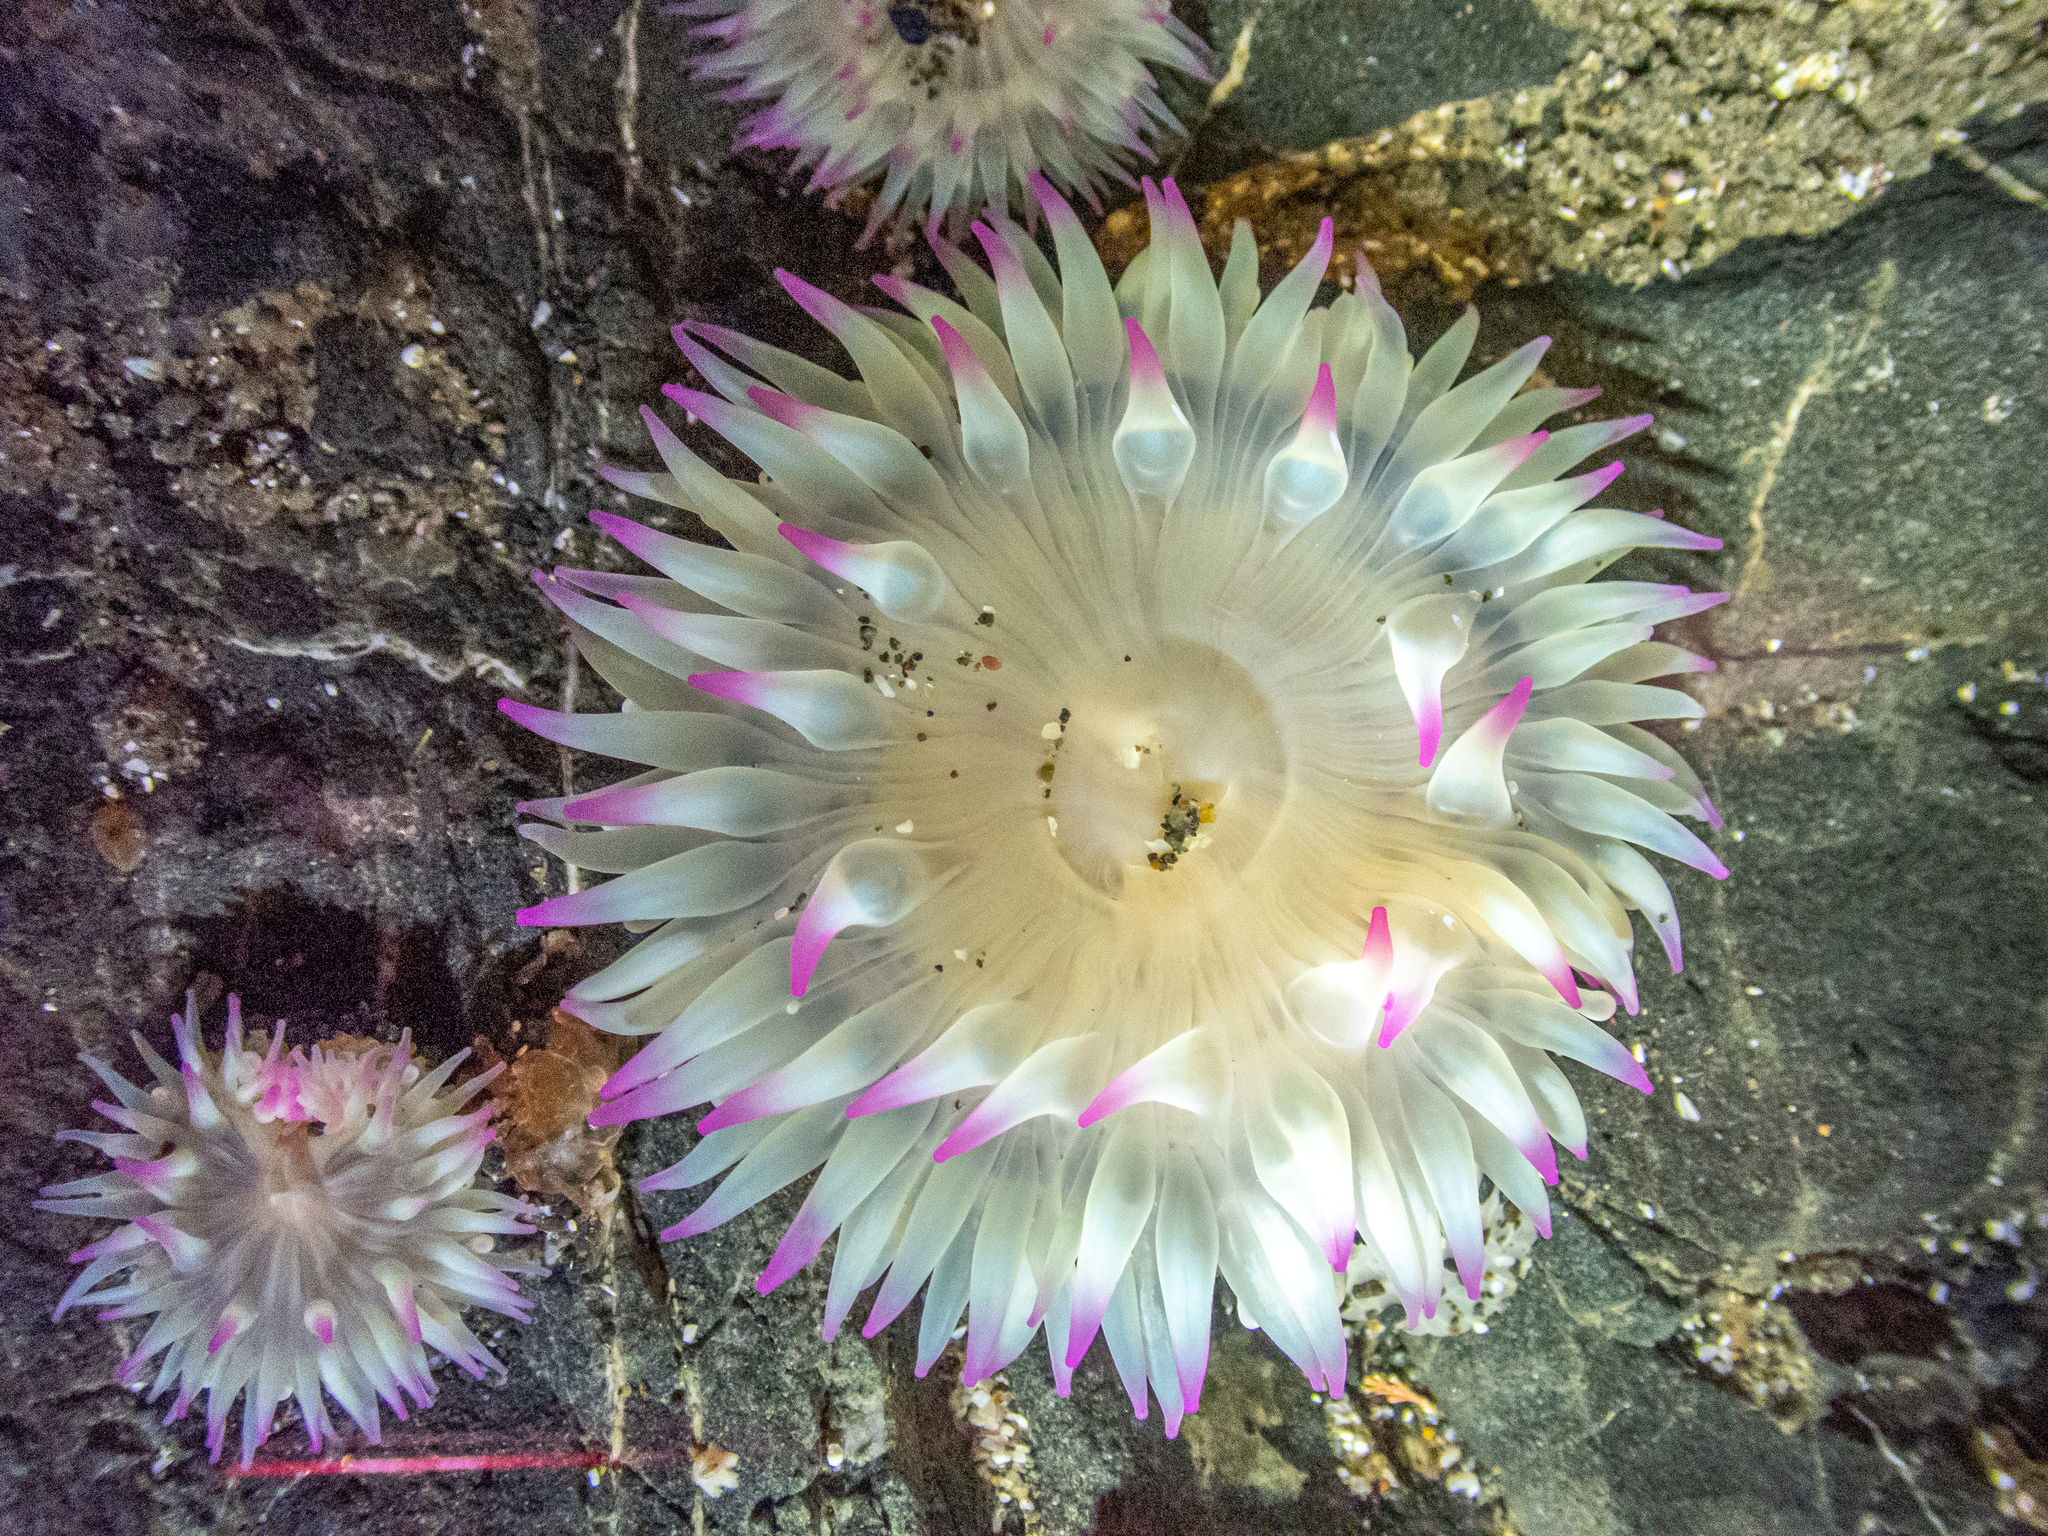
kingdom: Animalia
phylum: Cnidaria
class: Anthozoa
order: Actiniaria
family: Actiniidae
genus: Anthopleura
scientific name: Anthopleura elegantissima
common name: Clonal anemone
